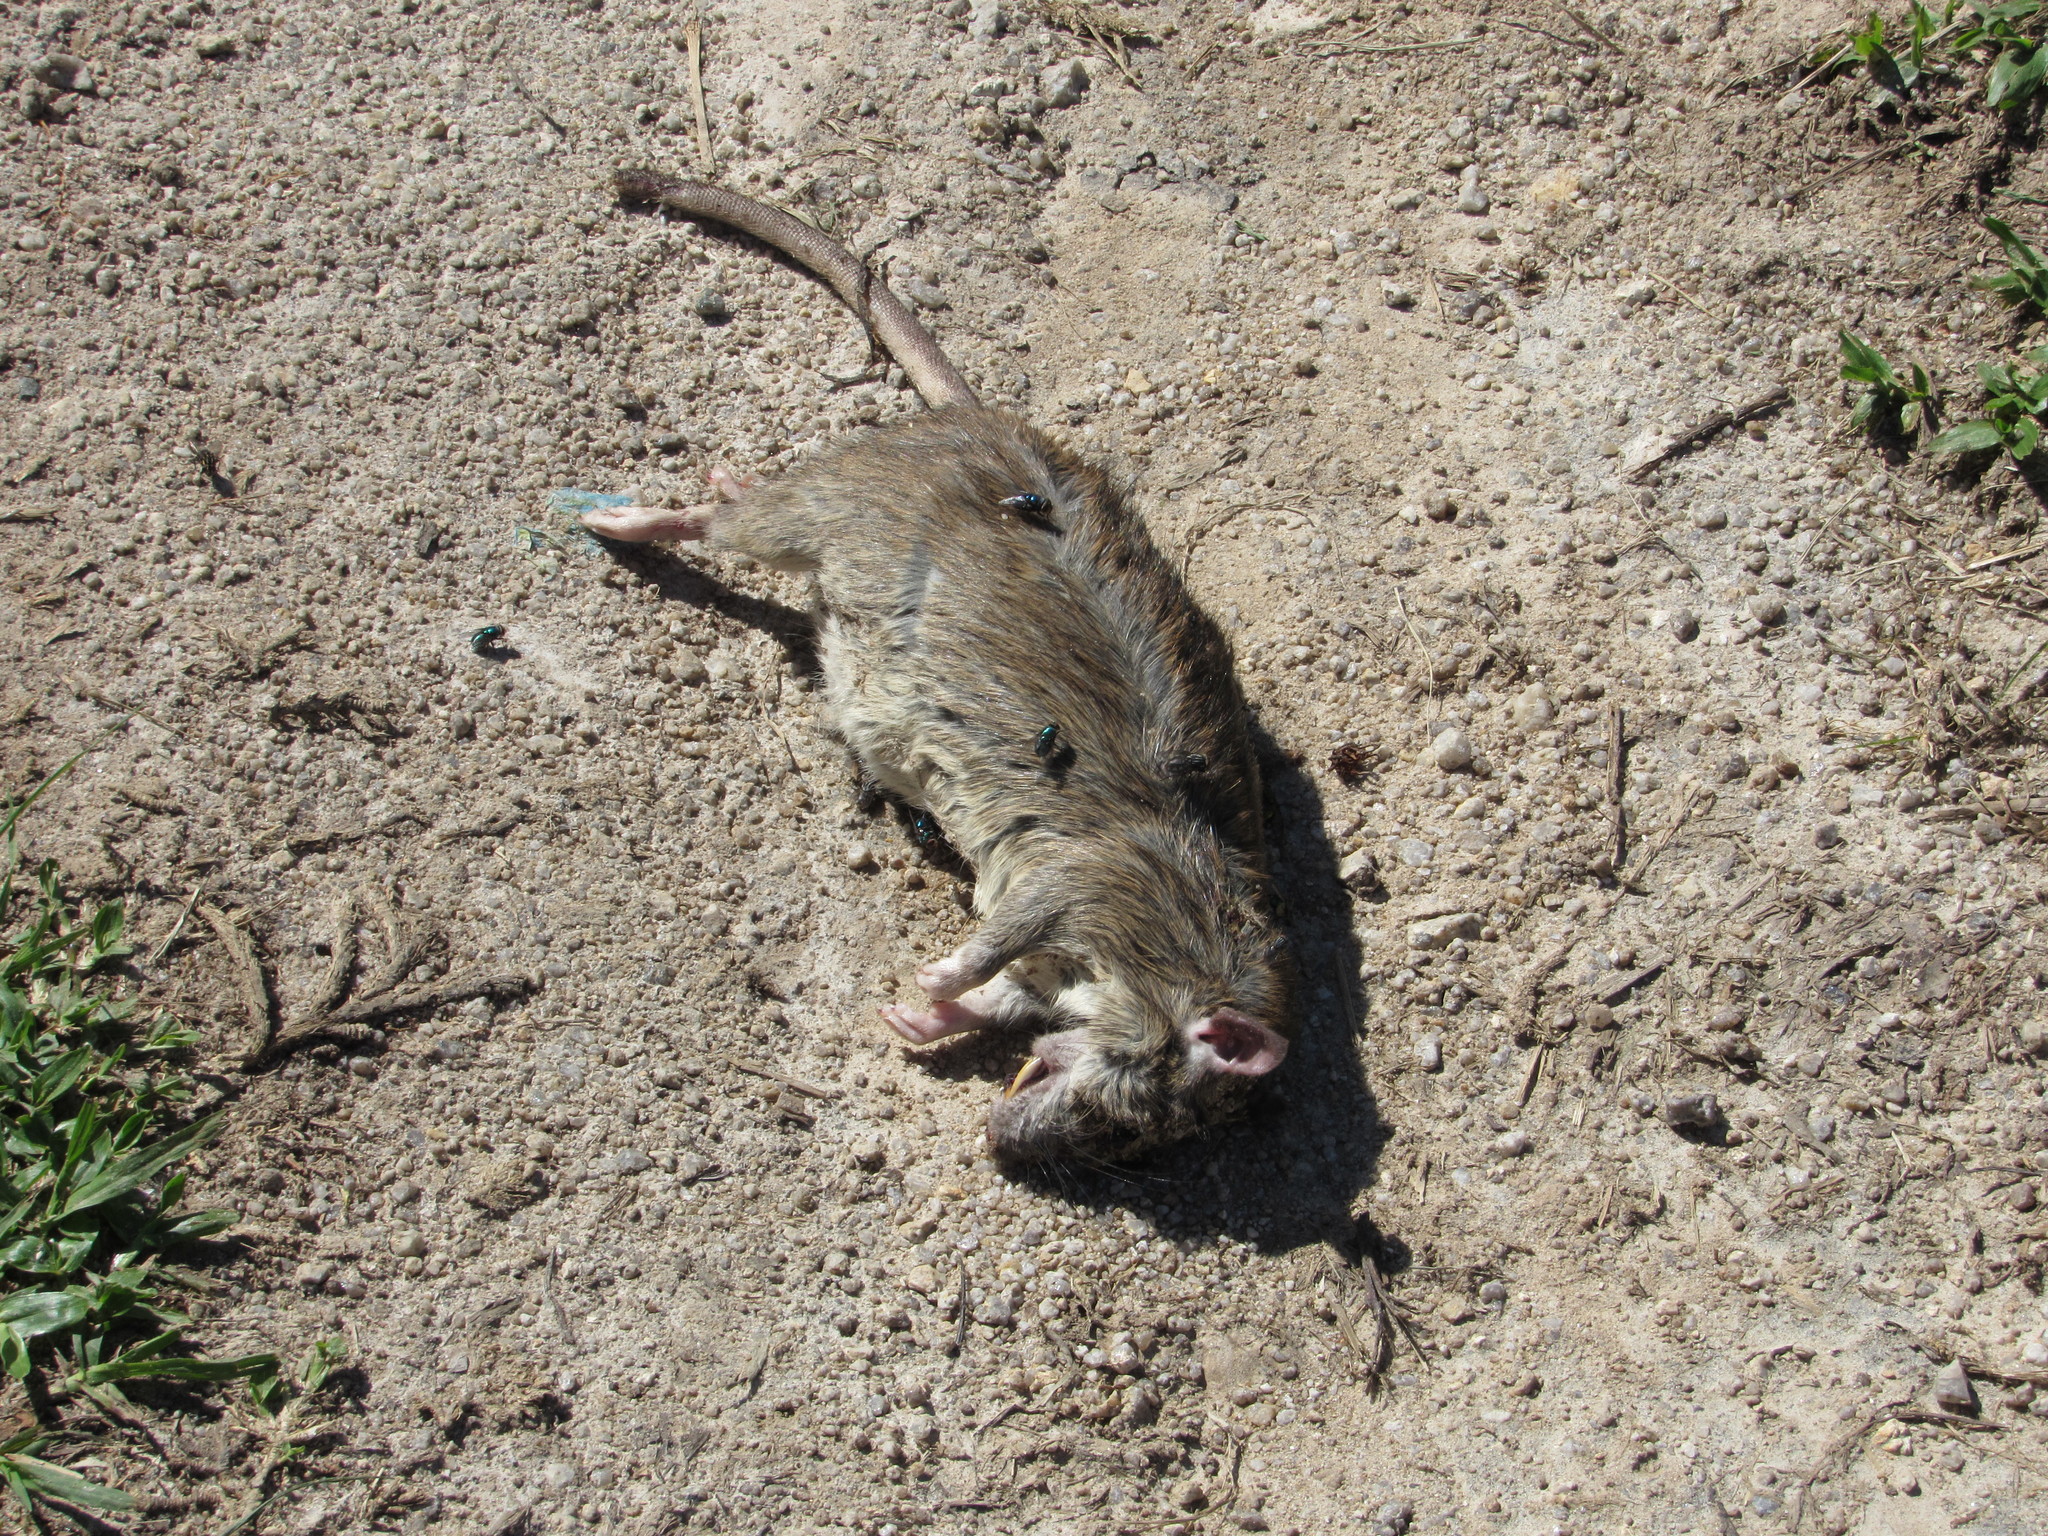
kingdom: Animalia
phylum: Chordata
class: Mammalia
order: Rodentia
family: Muridae
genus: Rattus
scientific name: Rattus norvegicus
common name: Brown rat
